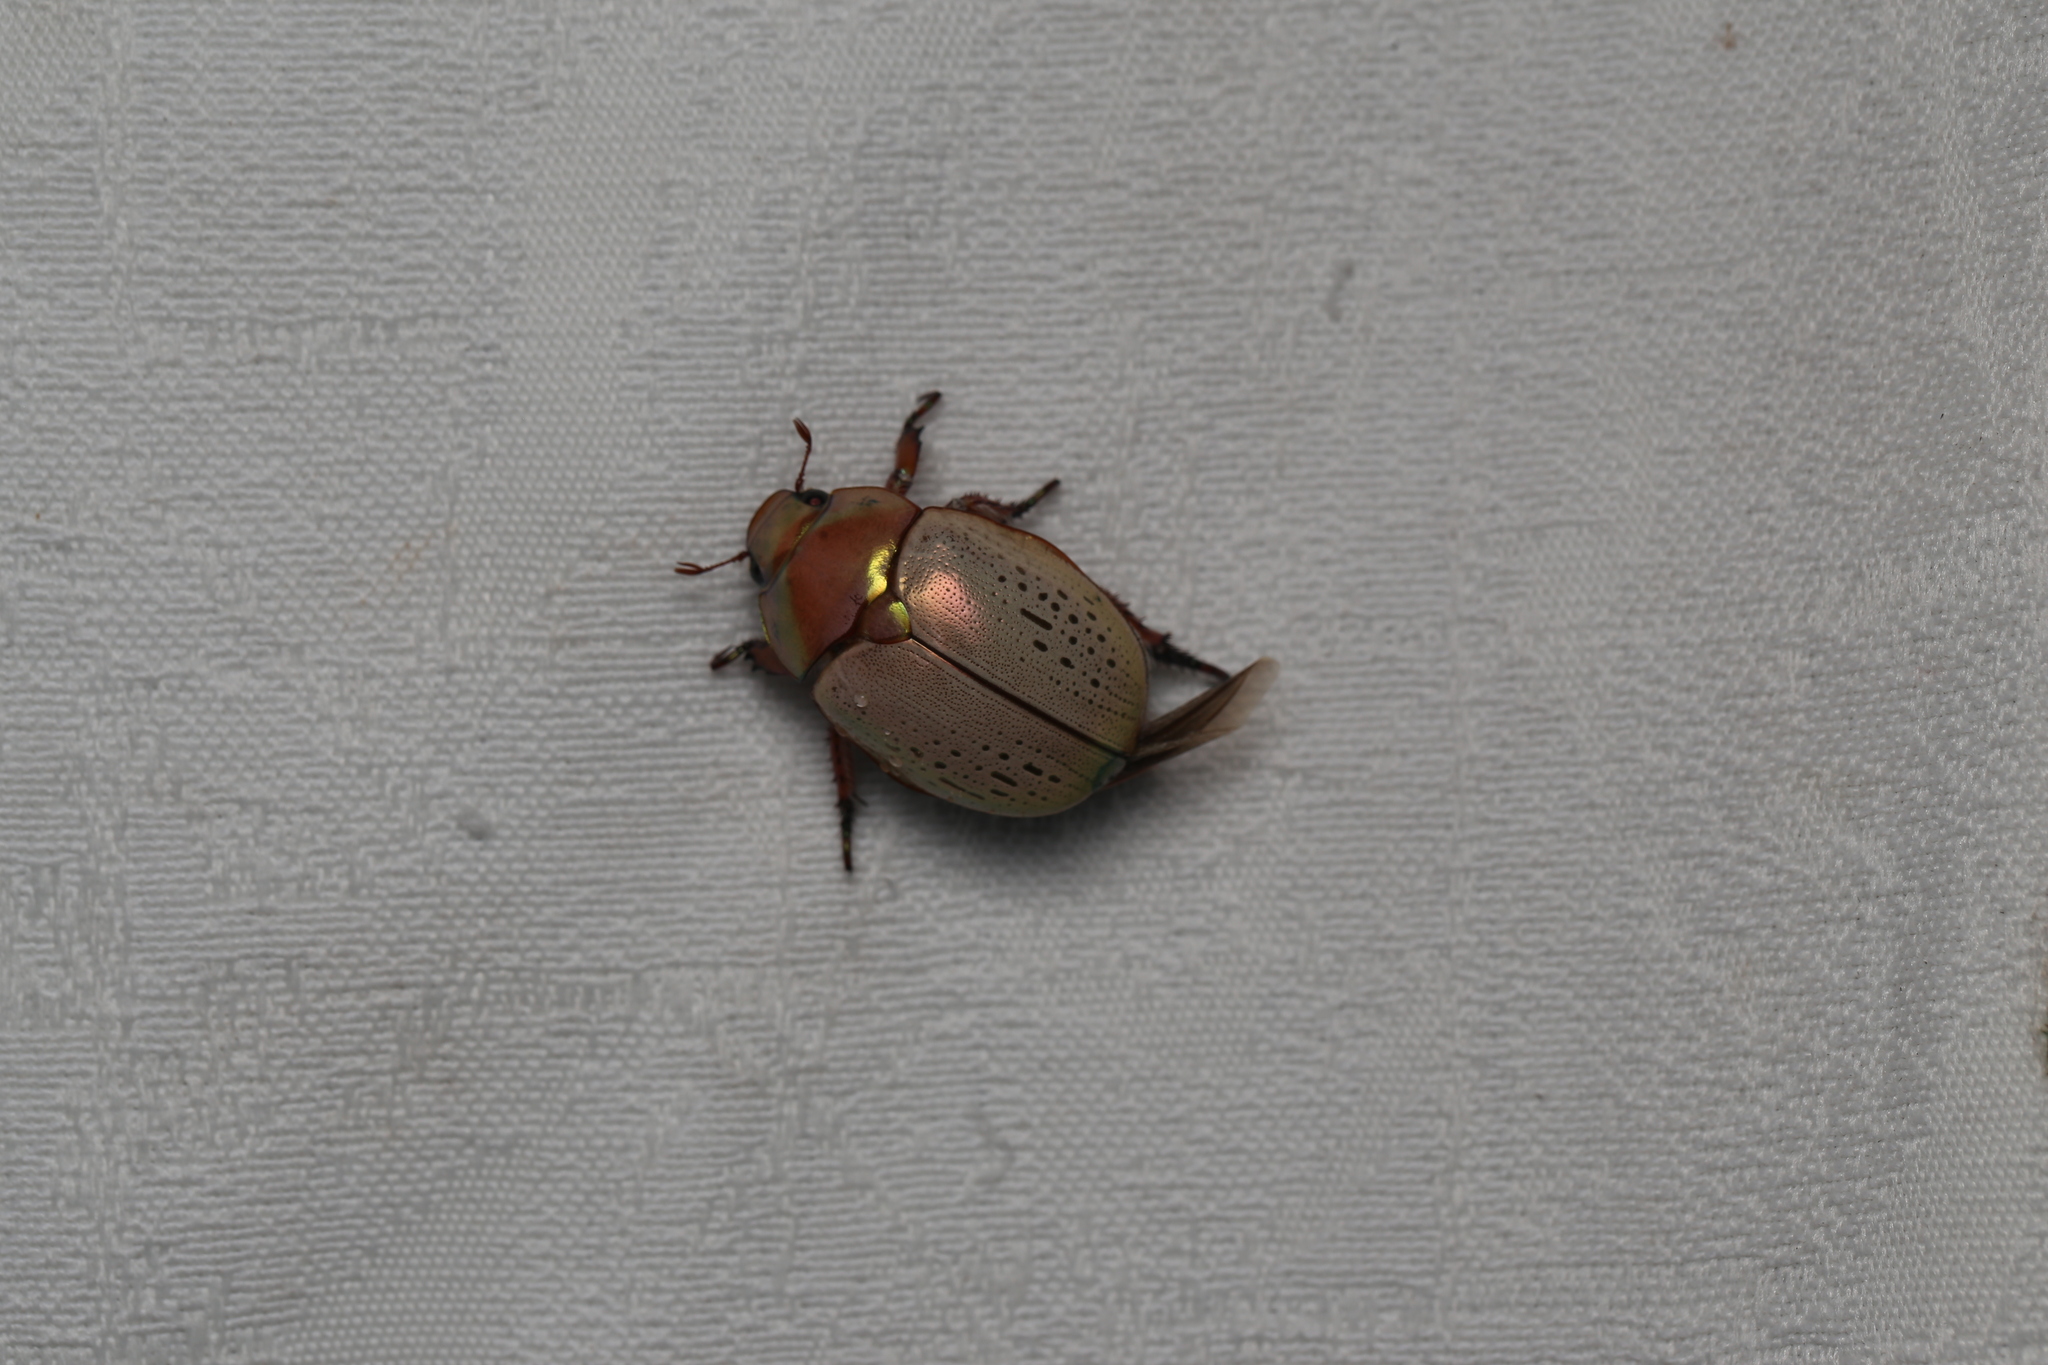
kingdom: Animalia
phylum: Arthropoda
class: Insecta
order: Coleoptera
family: Scarabaeidae
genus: Anoplognathus
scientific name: Anoplognathus olivieri
